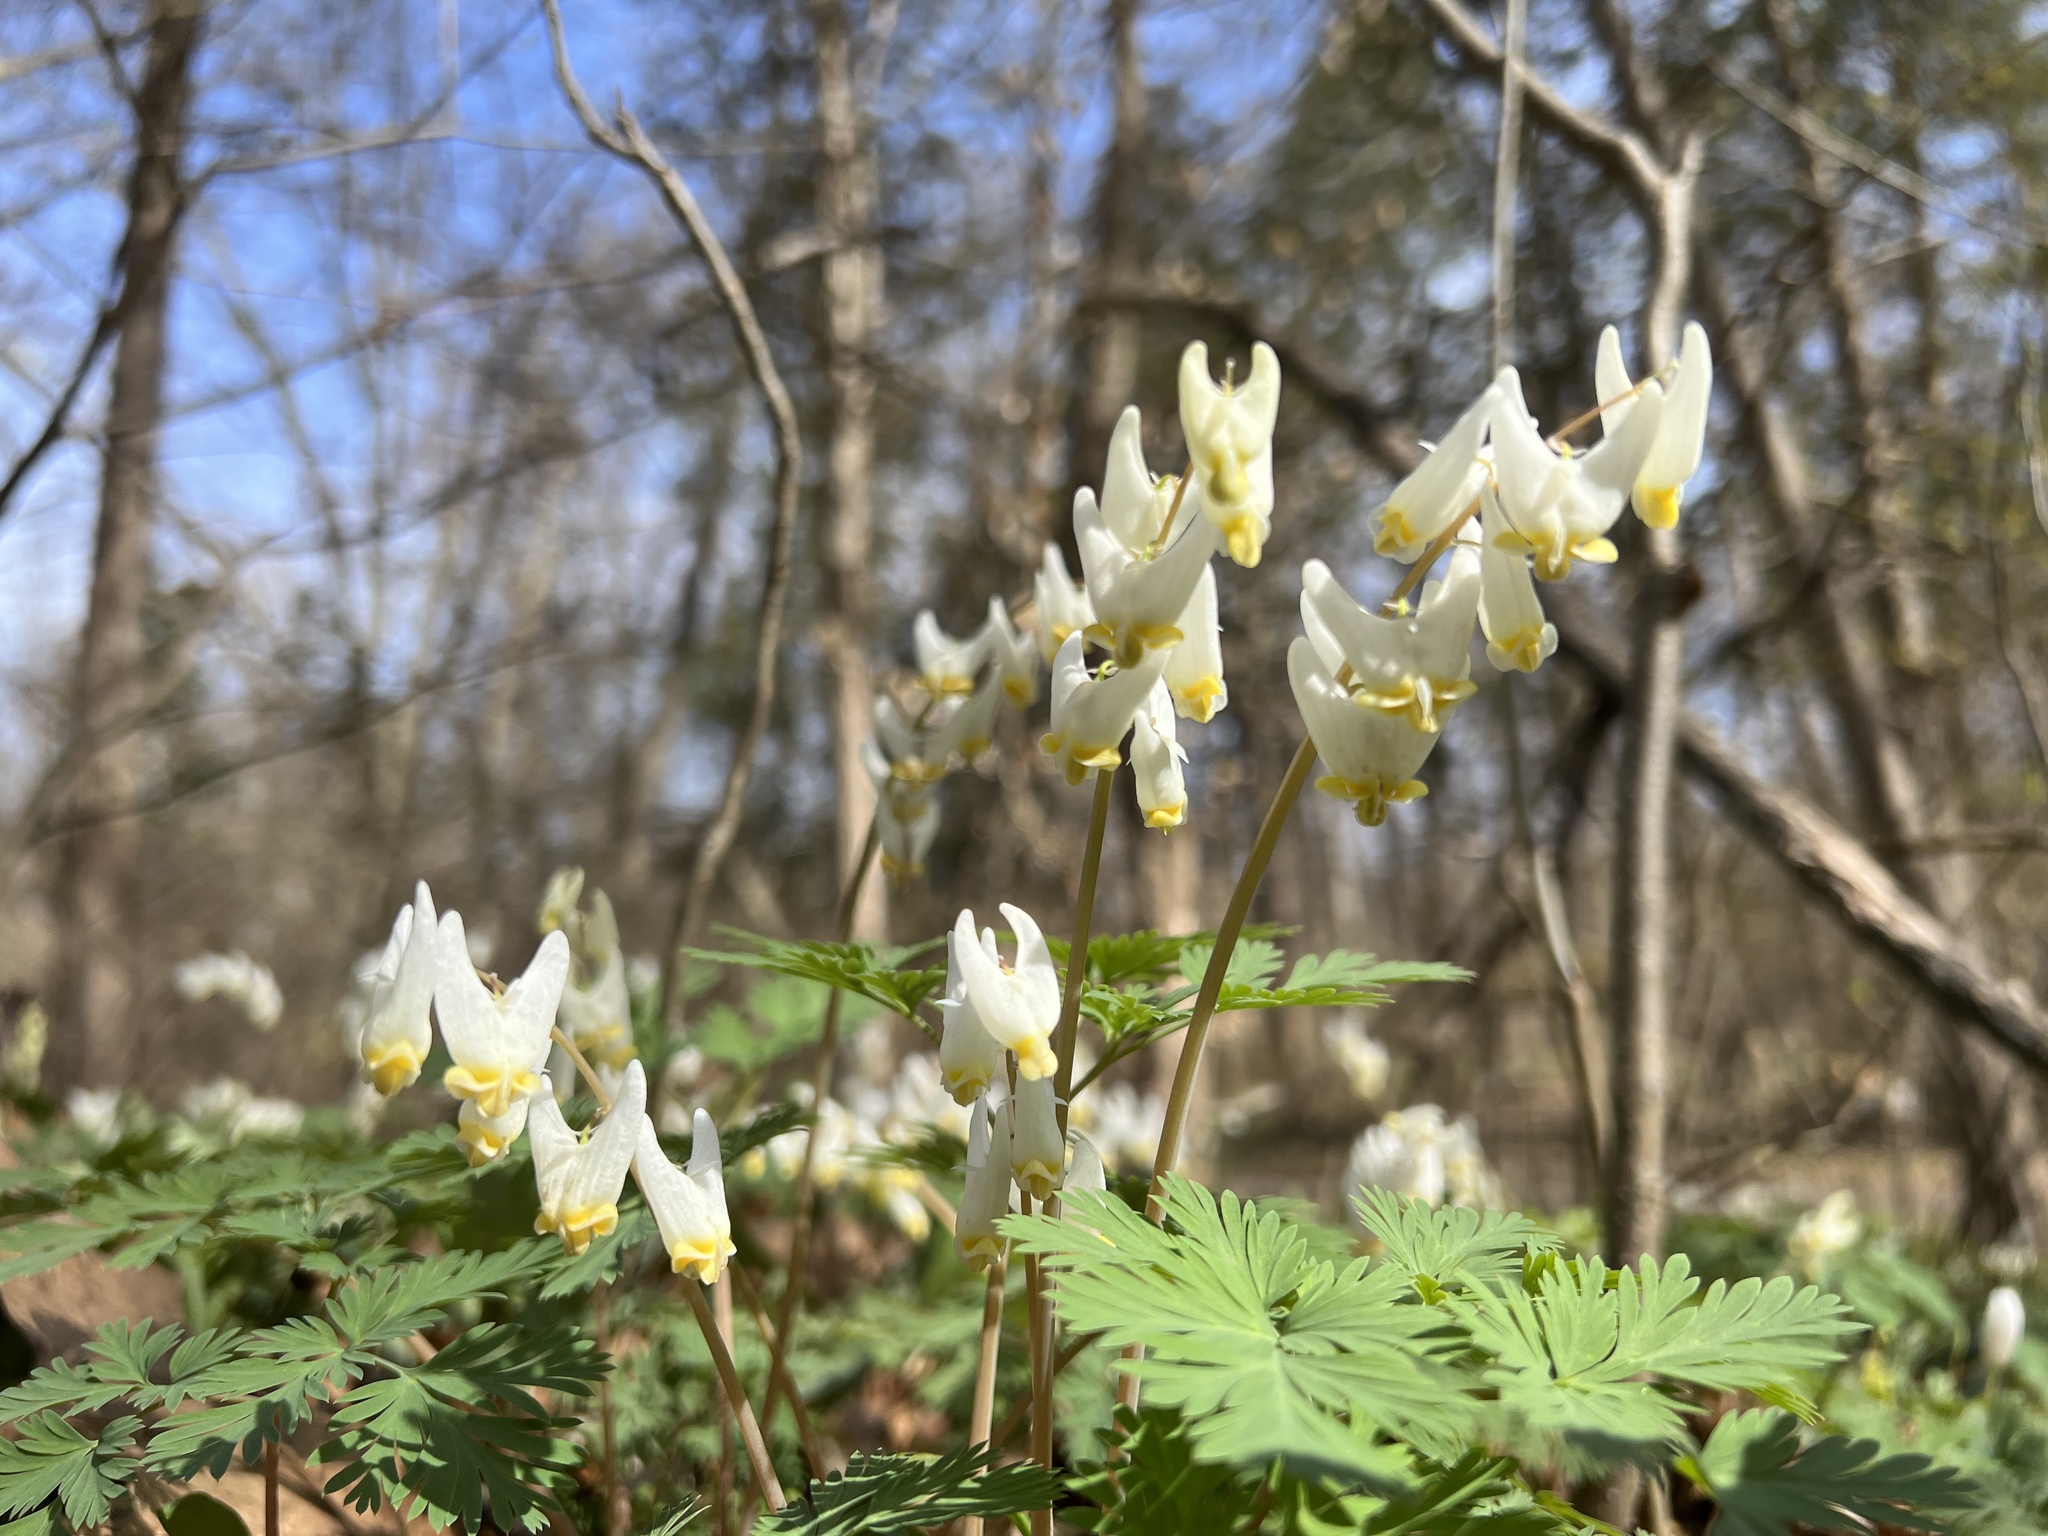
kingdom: Plantae
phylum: Tracheophyta
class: Magnoliopsida
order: Ranunculales
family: Papaveraceae
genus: Dicentra
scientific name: Dicentra cucullaria
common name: Dutchman's breeches
